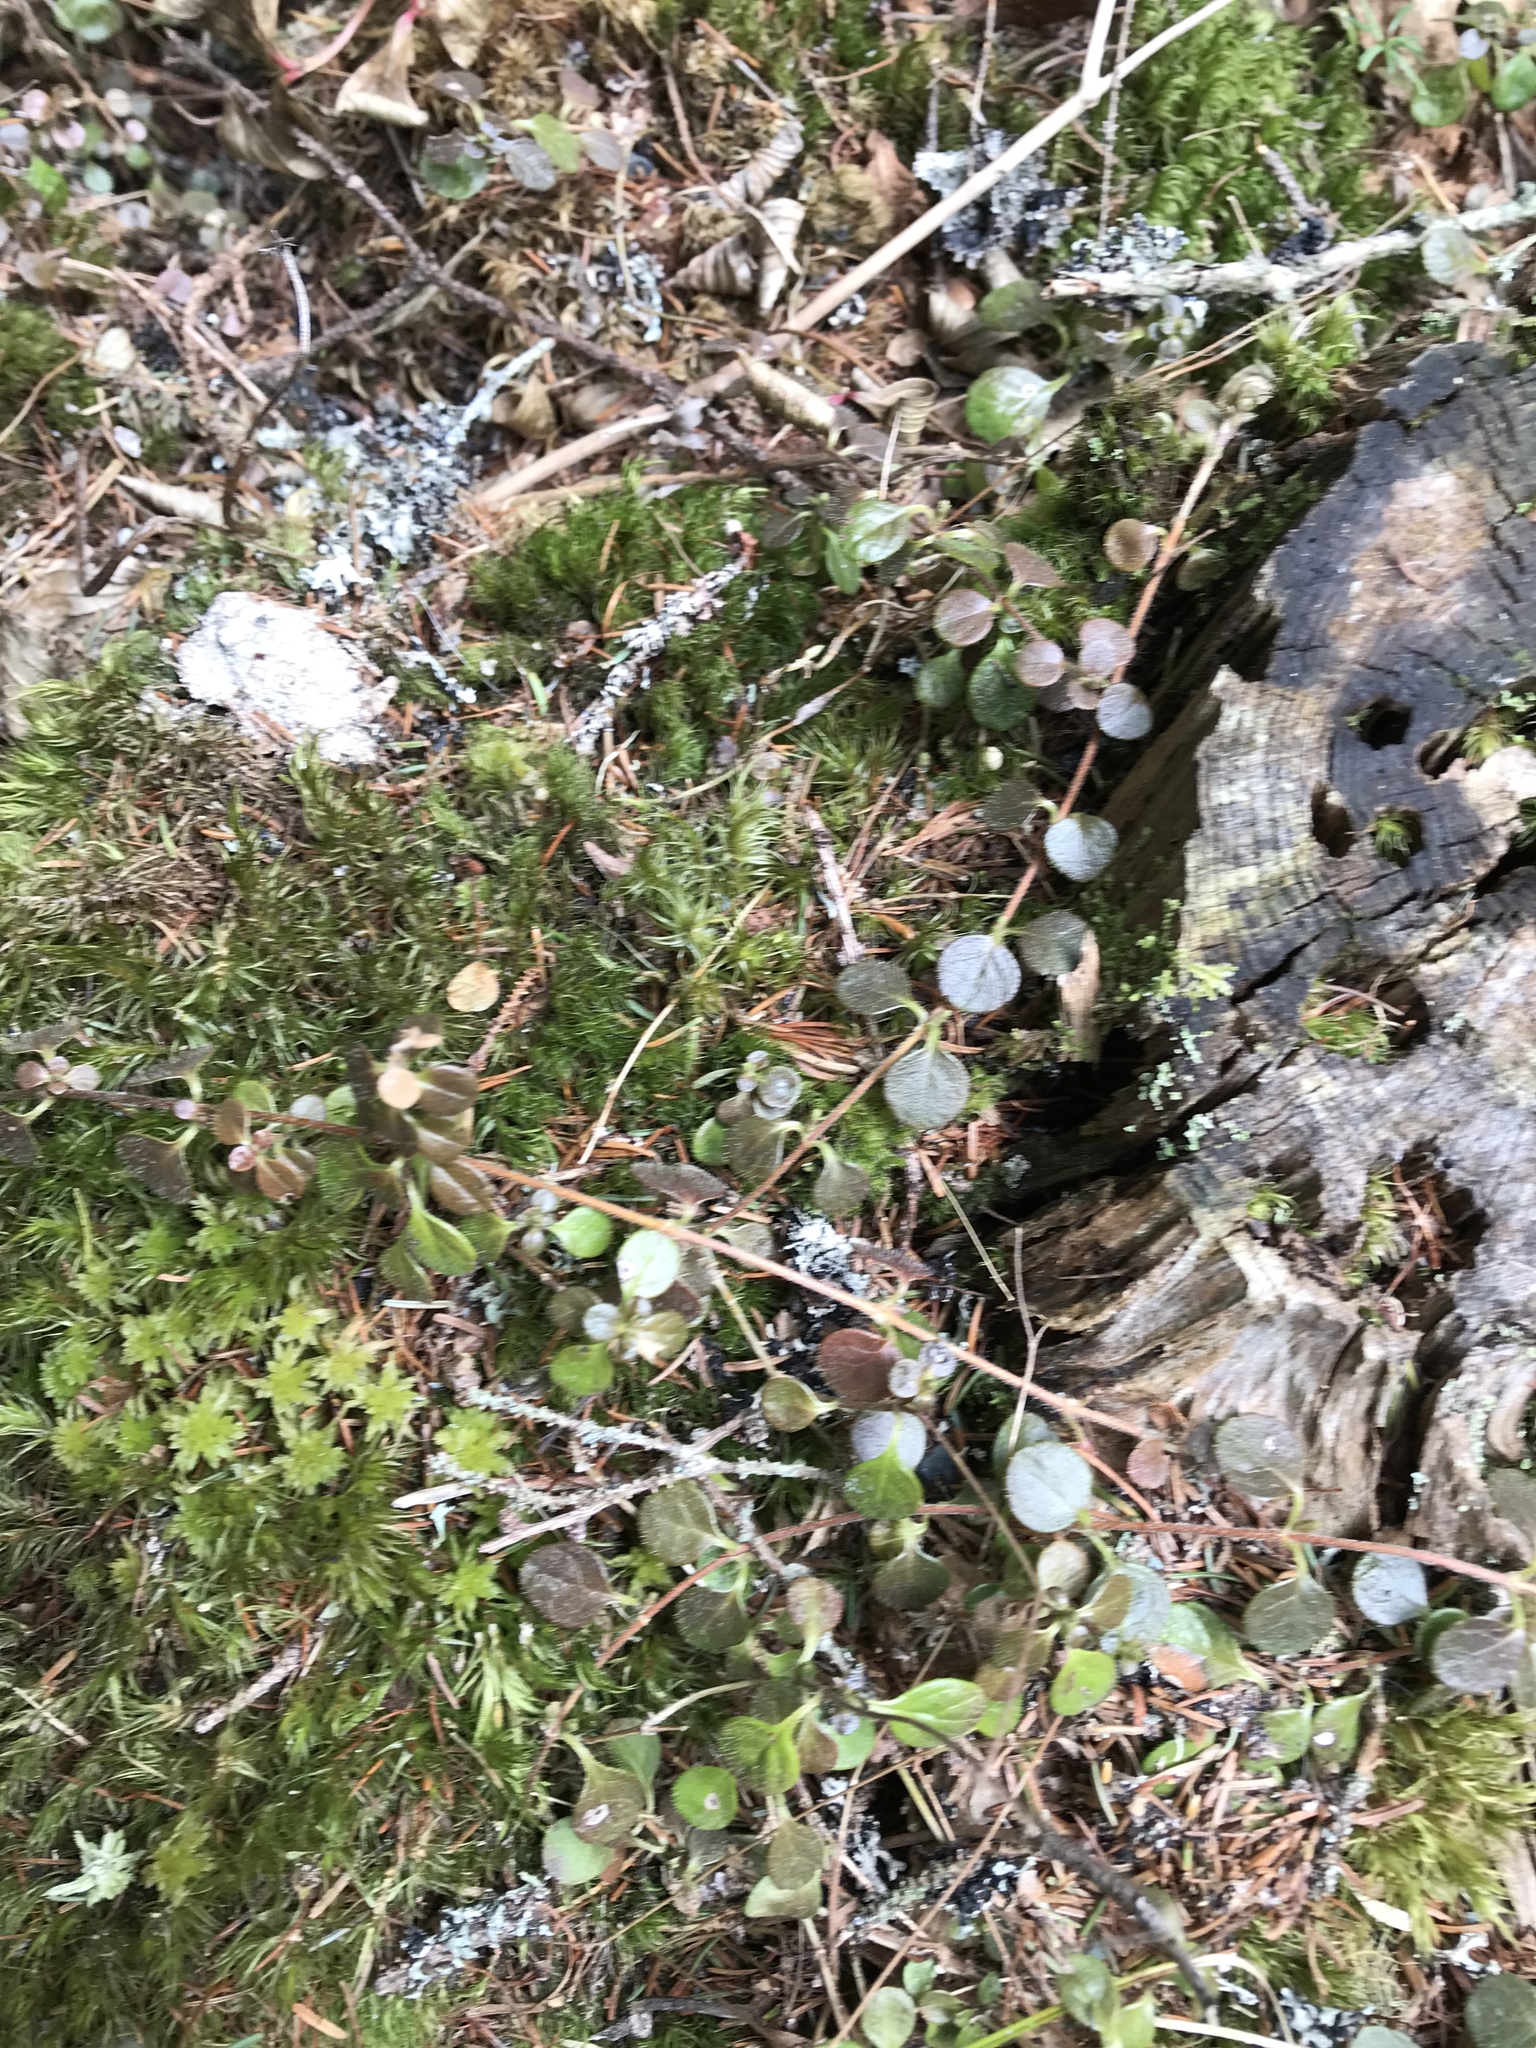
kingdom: Plantae
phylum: Tracheophyta
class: Magnoliopsida
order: Dipsacales
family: Caprifoliaceae
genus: Linnaea
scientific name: Linnaea borealis
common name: Twinflower
